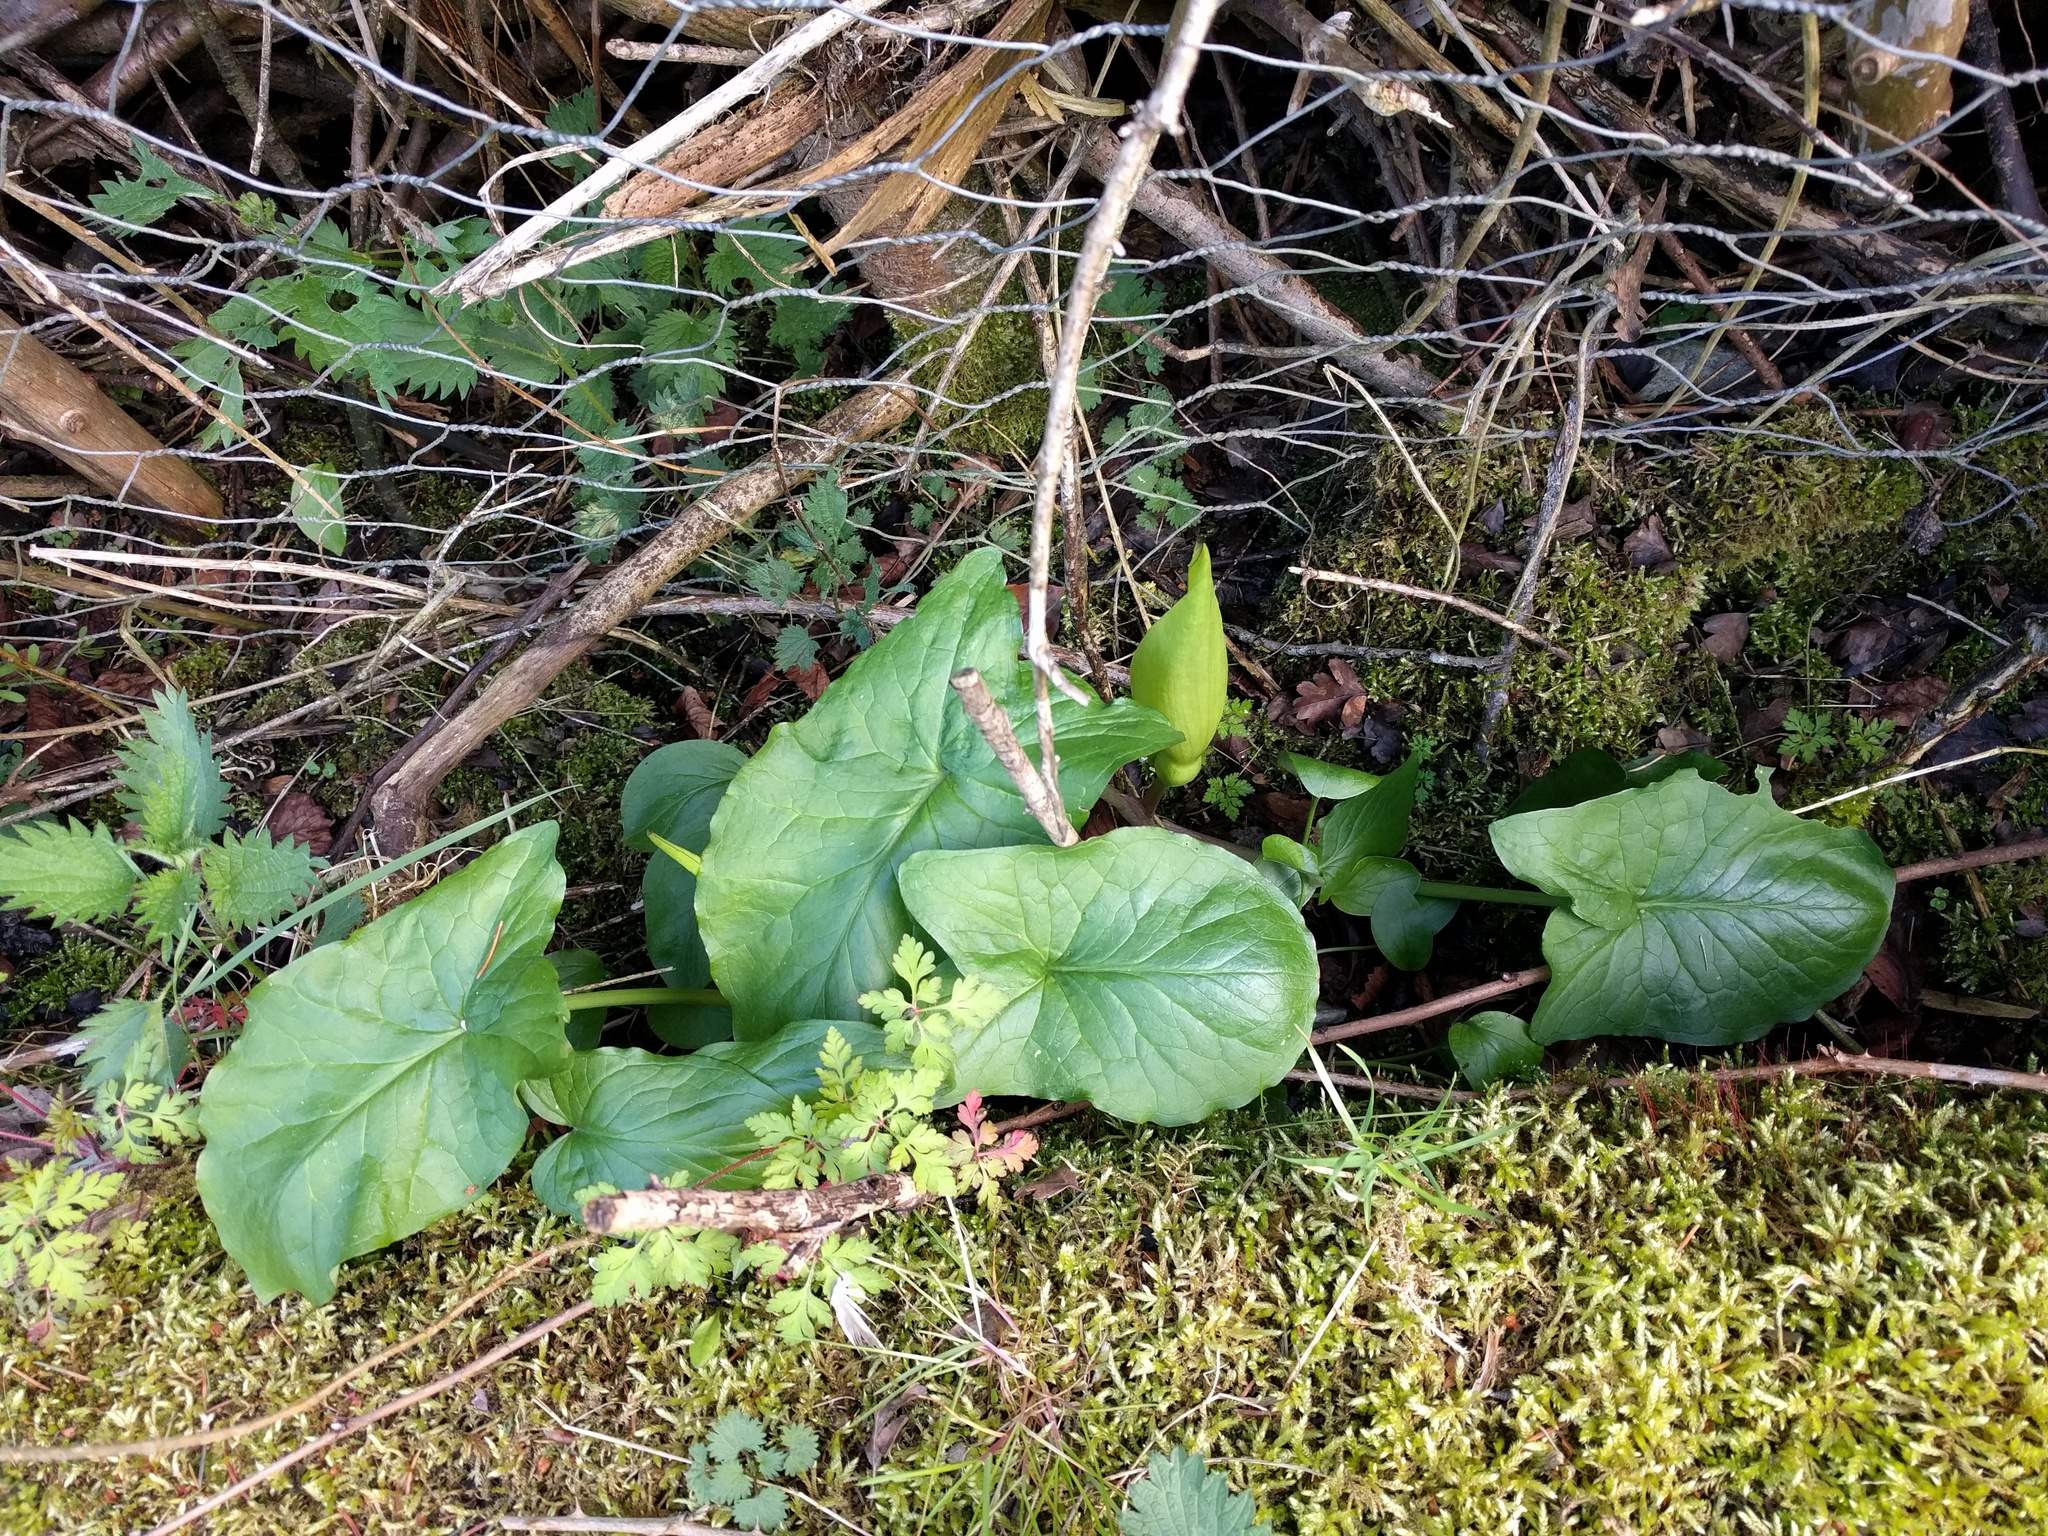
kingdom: Plantae
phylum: Tracheophyta
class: Liliopsida
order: Alismatales
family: Araceae
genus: Arum
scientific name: Arum maculatum
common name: Lords-and-ladies
